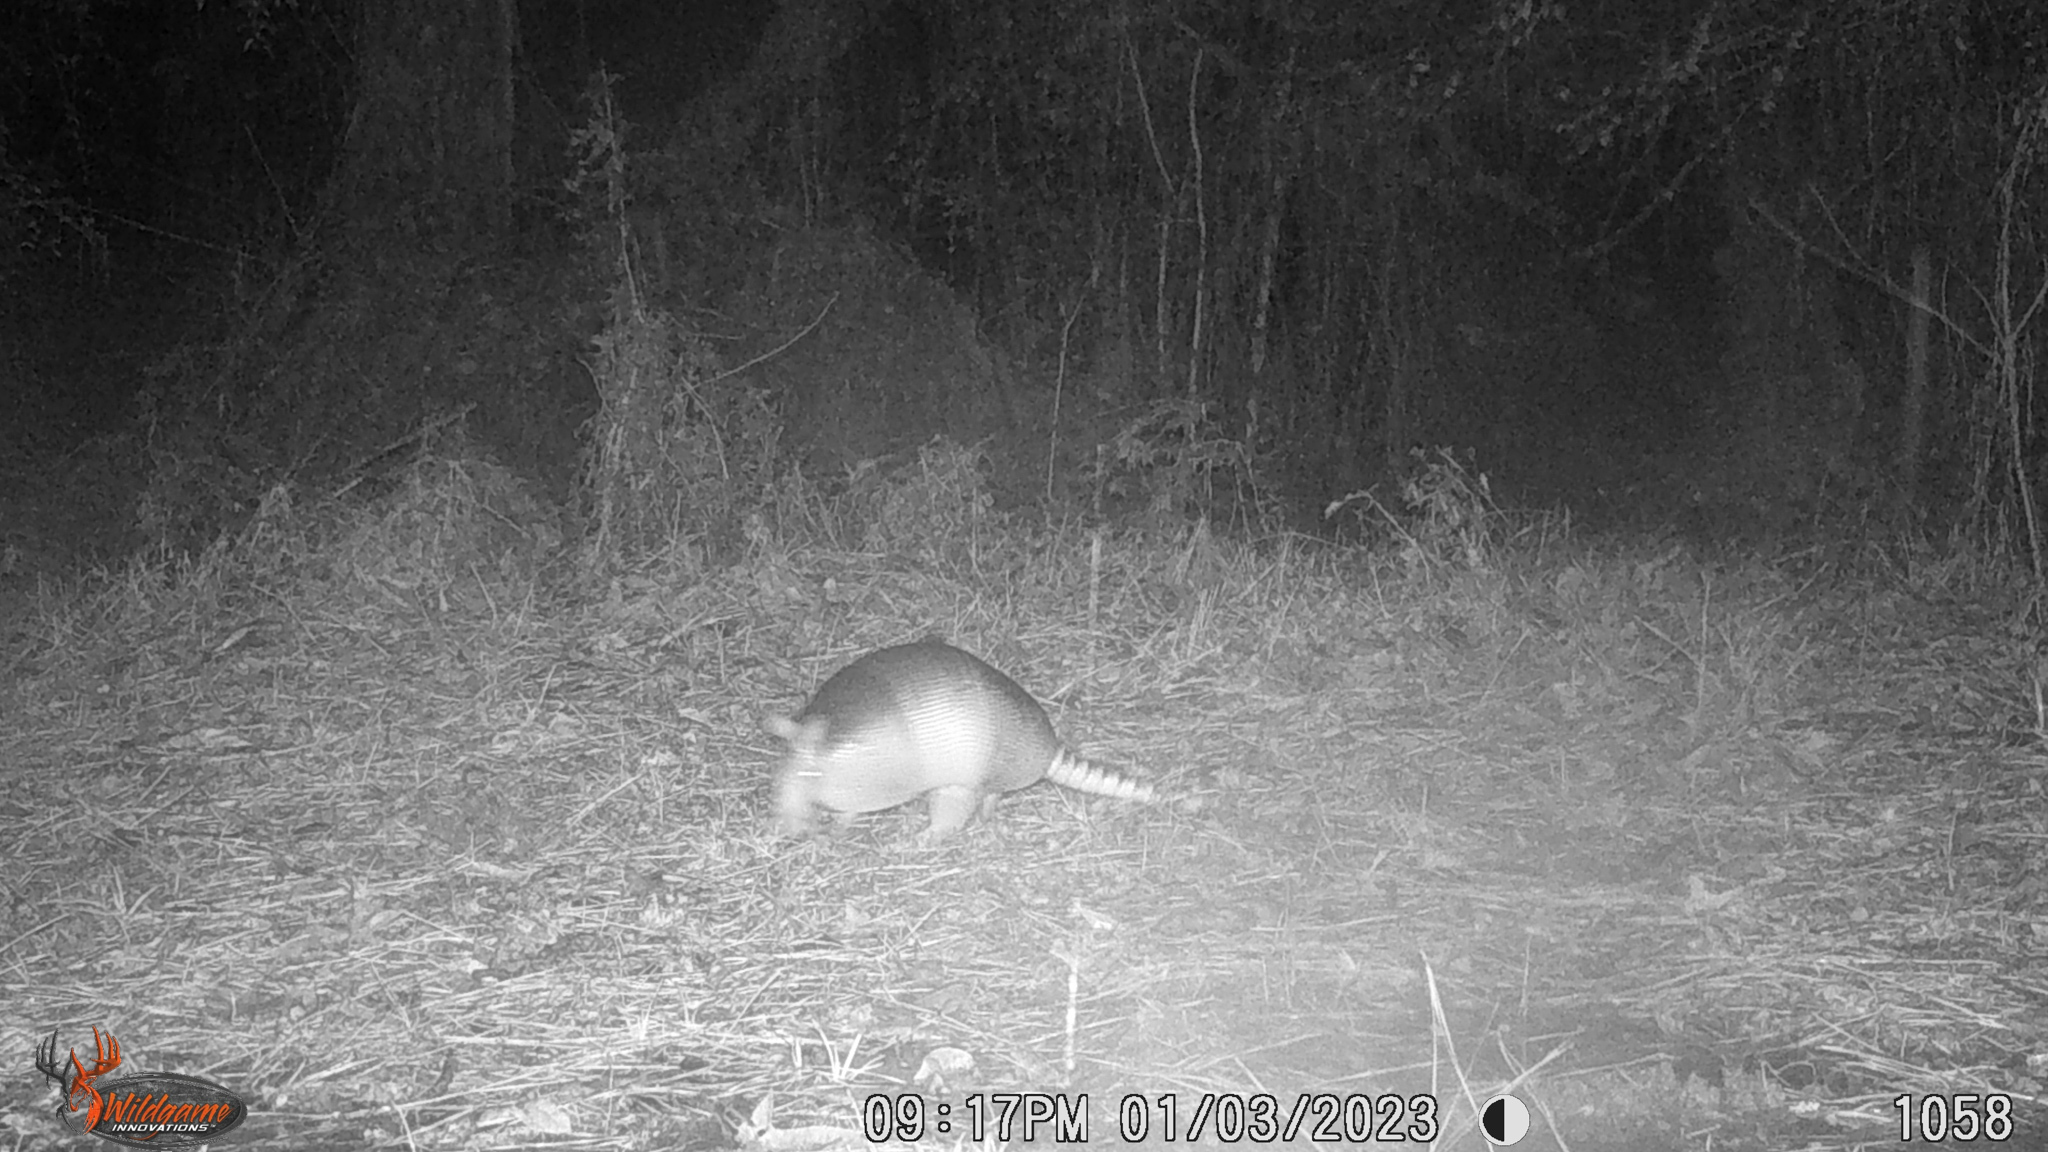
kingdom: Animalia
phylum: Chordata
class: Mammalia
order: Cingulata
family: Dasypodidae
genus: Dasypus
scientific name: Dasypus novemcinctus
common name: Nine-banded armadillo
